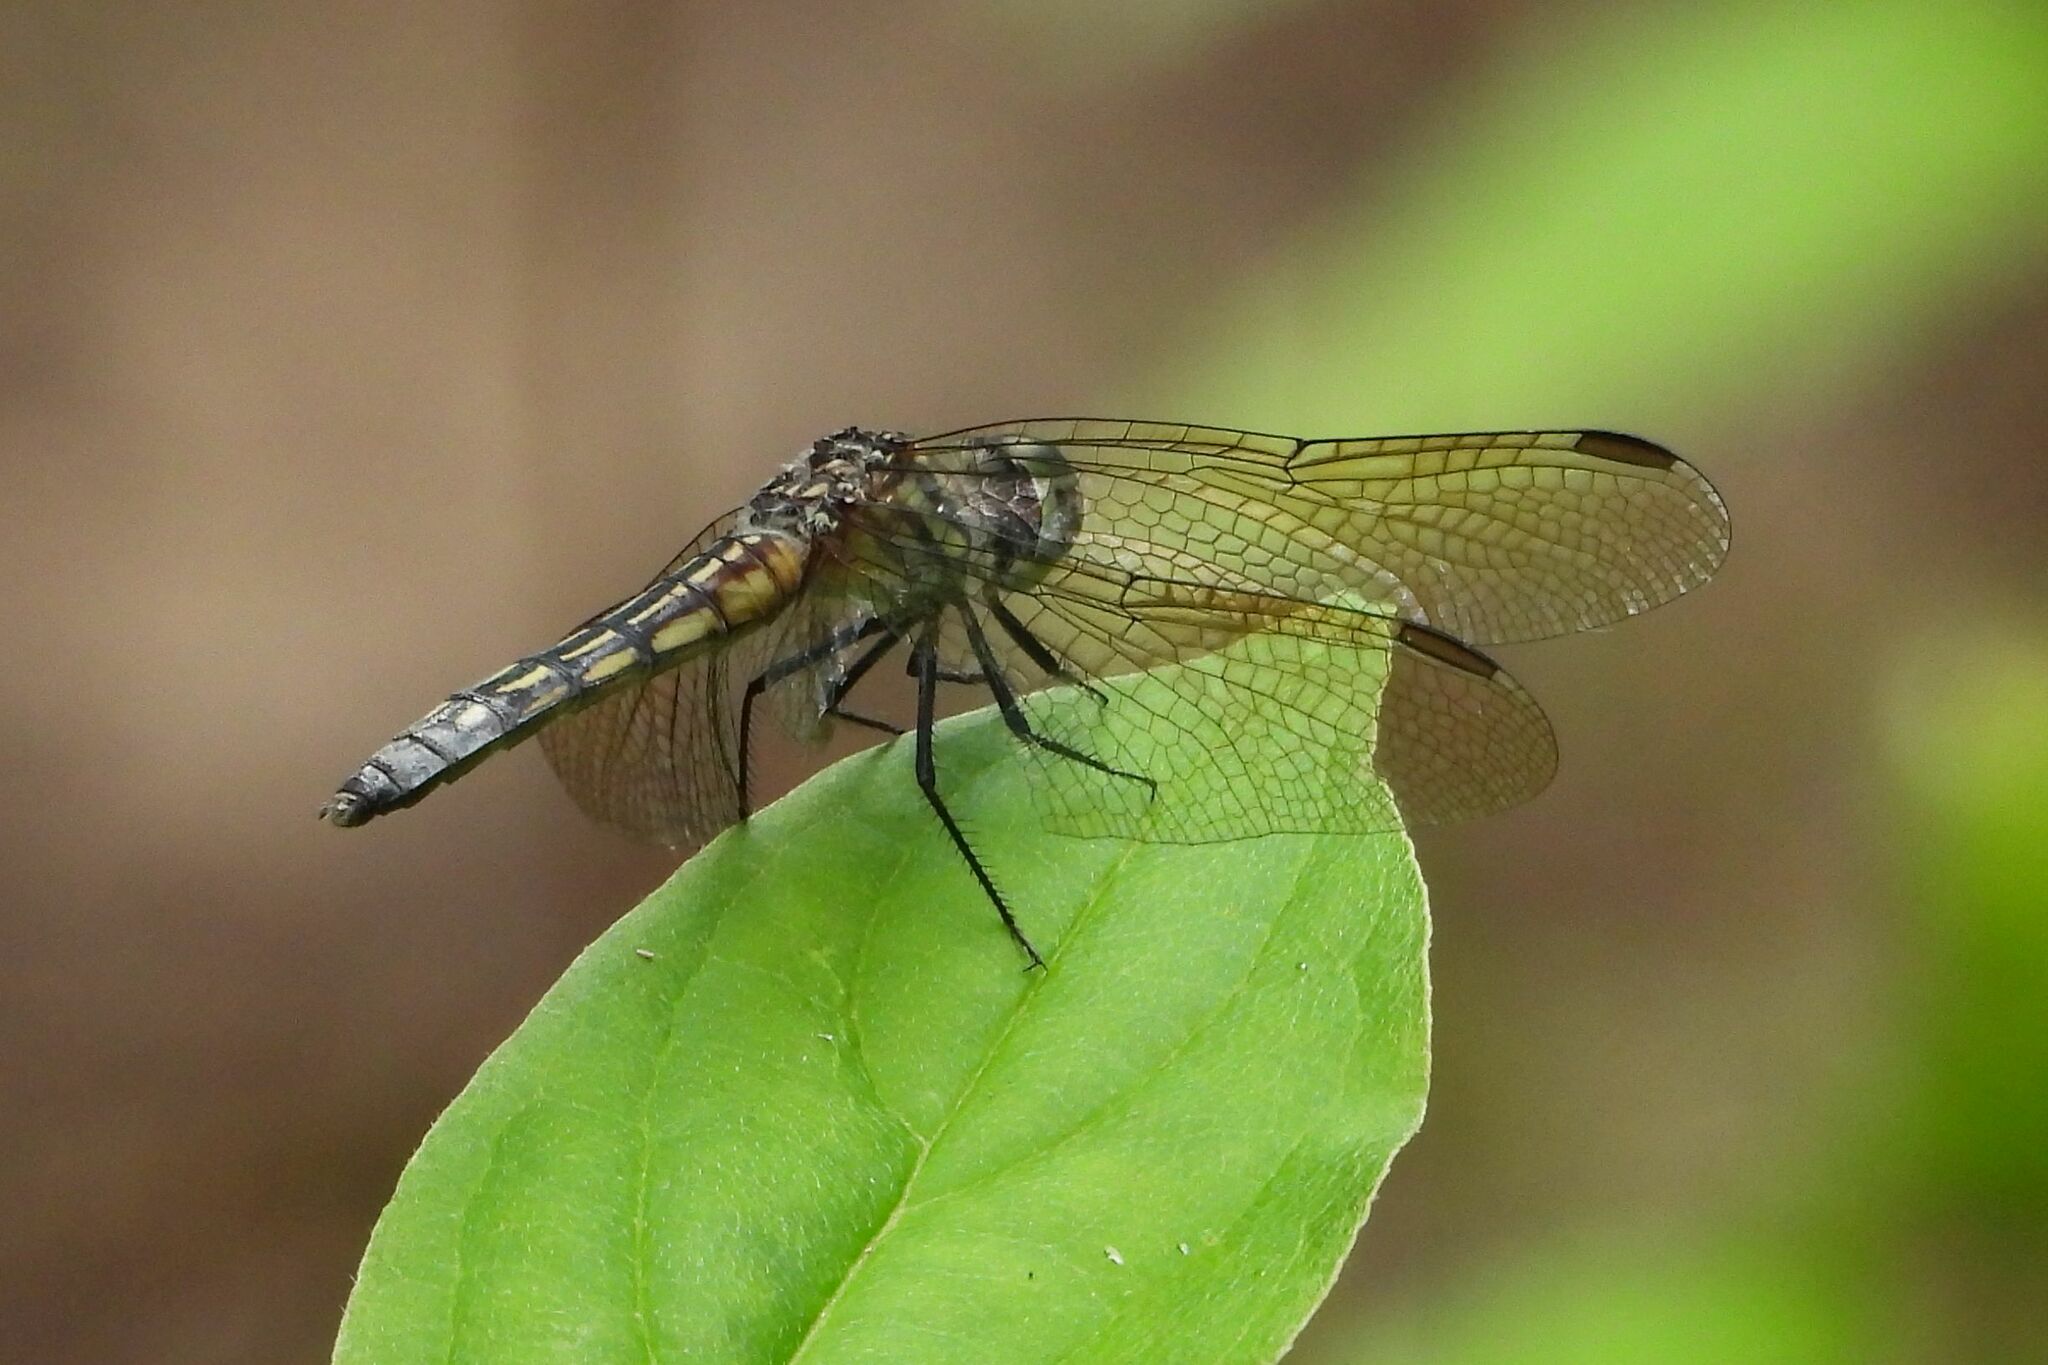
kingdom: Animalia
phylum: Arthropoda
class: Insecta
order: Odonata
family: Libellulidae
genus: Pachydiplax
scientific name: Pachydiplax longipennis
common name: Blue dasher
